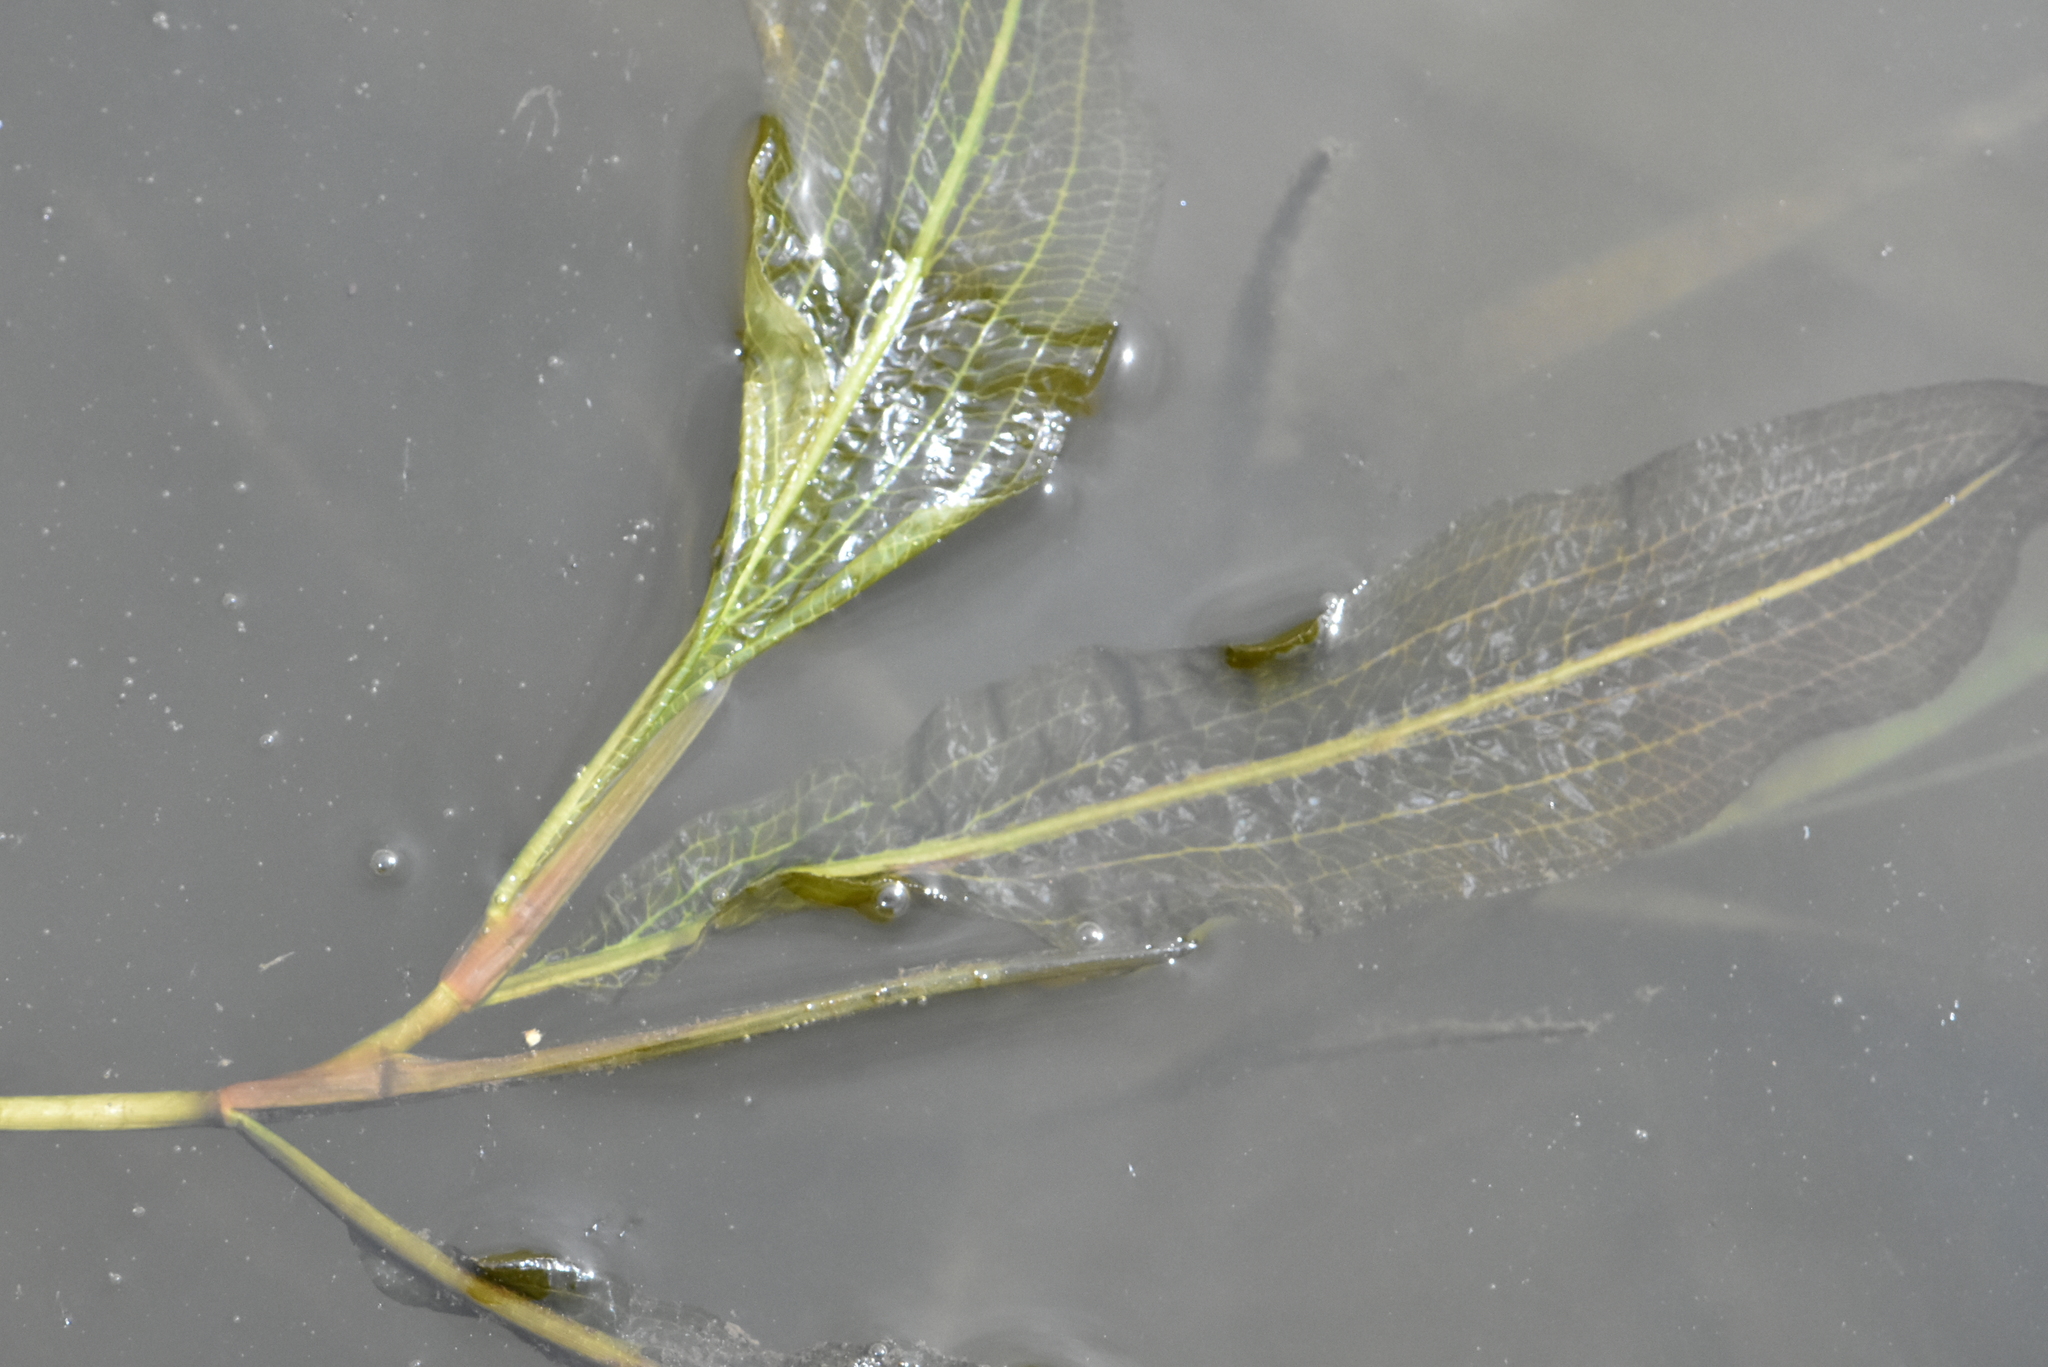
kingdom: Plantae
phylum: Tracheophyta
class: Liliopsida
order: Alismatales
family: Potamogetonaceae
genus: Potamogeton
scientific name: Potamogeton lucens
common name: Shining pondweed
